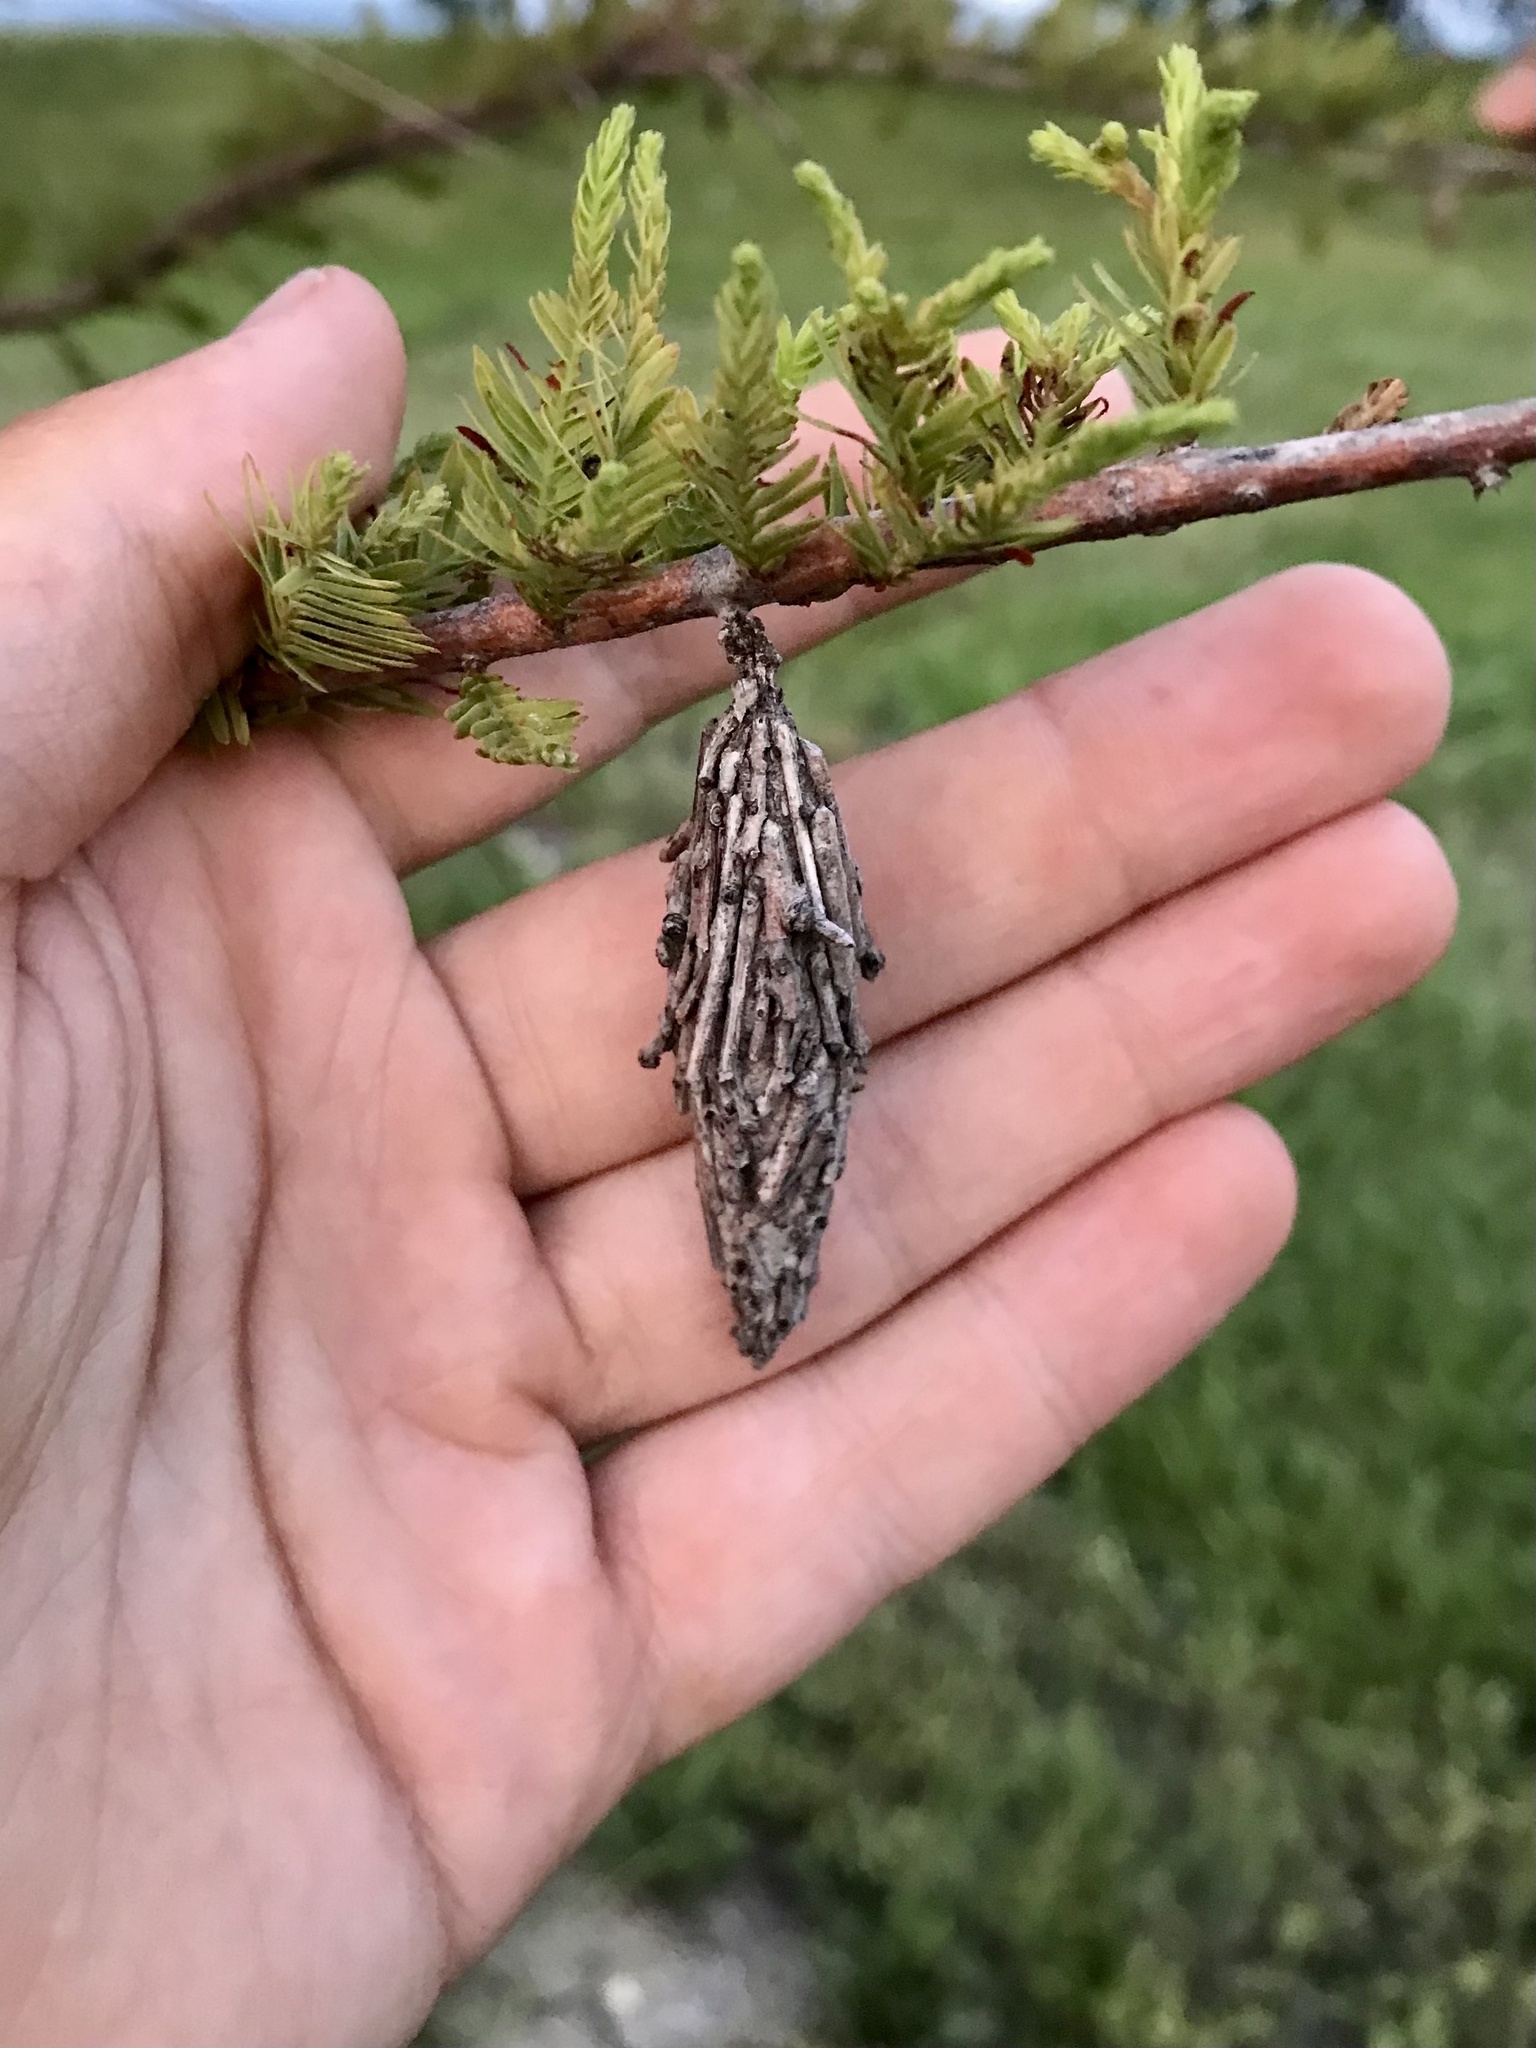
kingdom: Animalia
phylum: Arthropoda
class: Insecta
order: Lepidoptera
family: Psychidae
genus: Thyridopteryx
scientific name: Thyridopteryx ephemeraeformis
